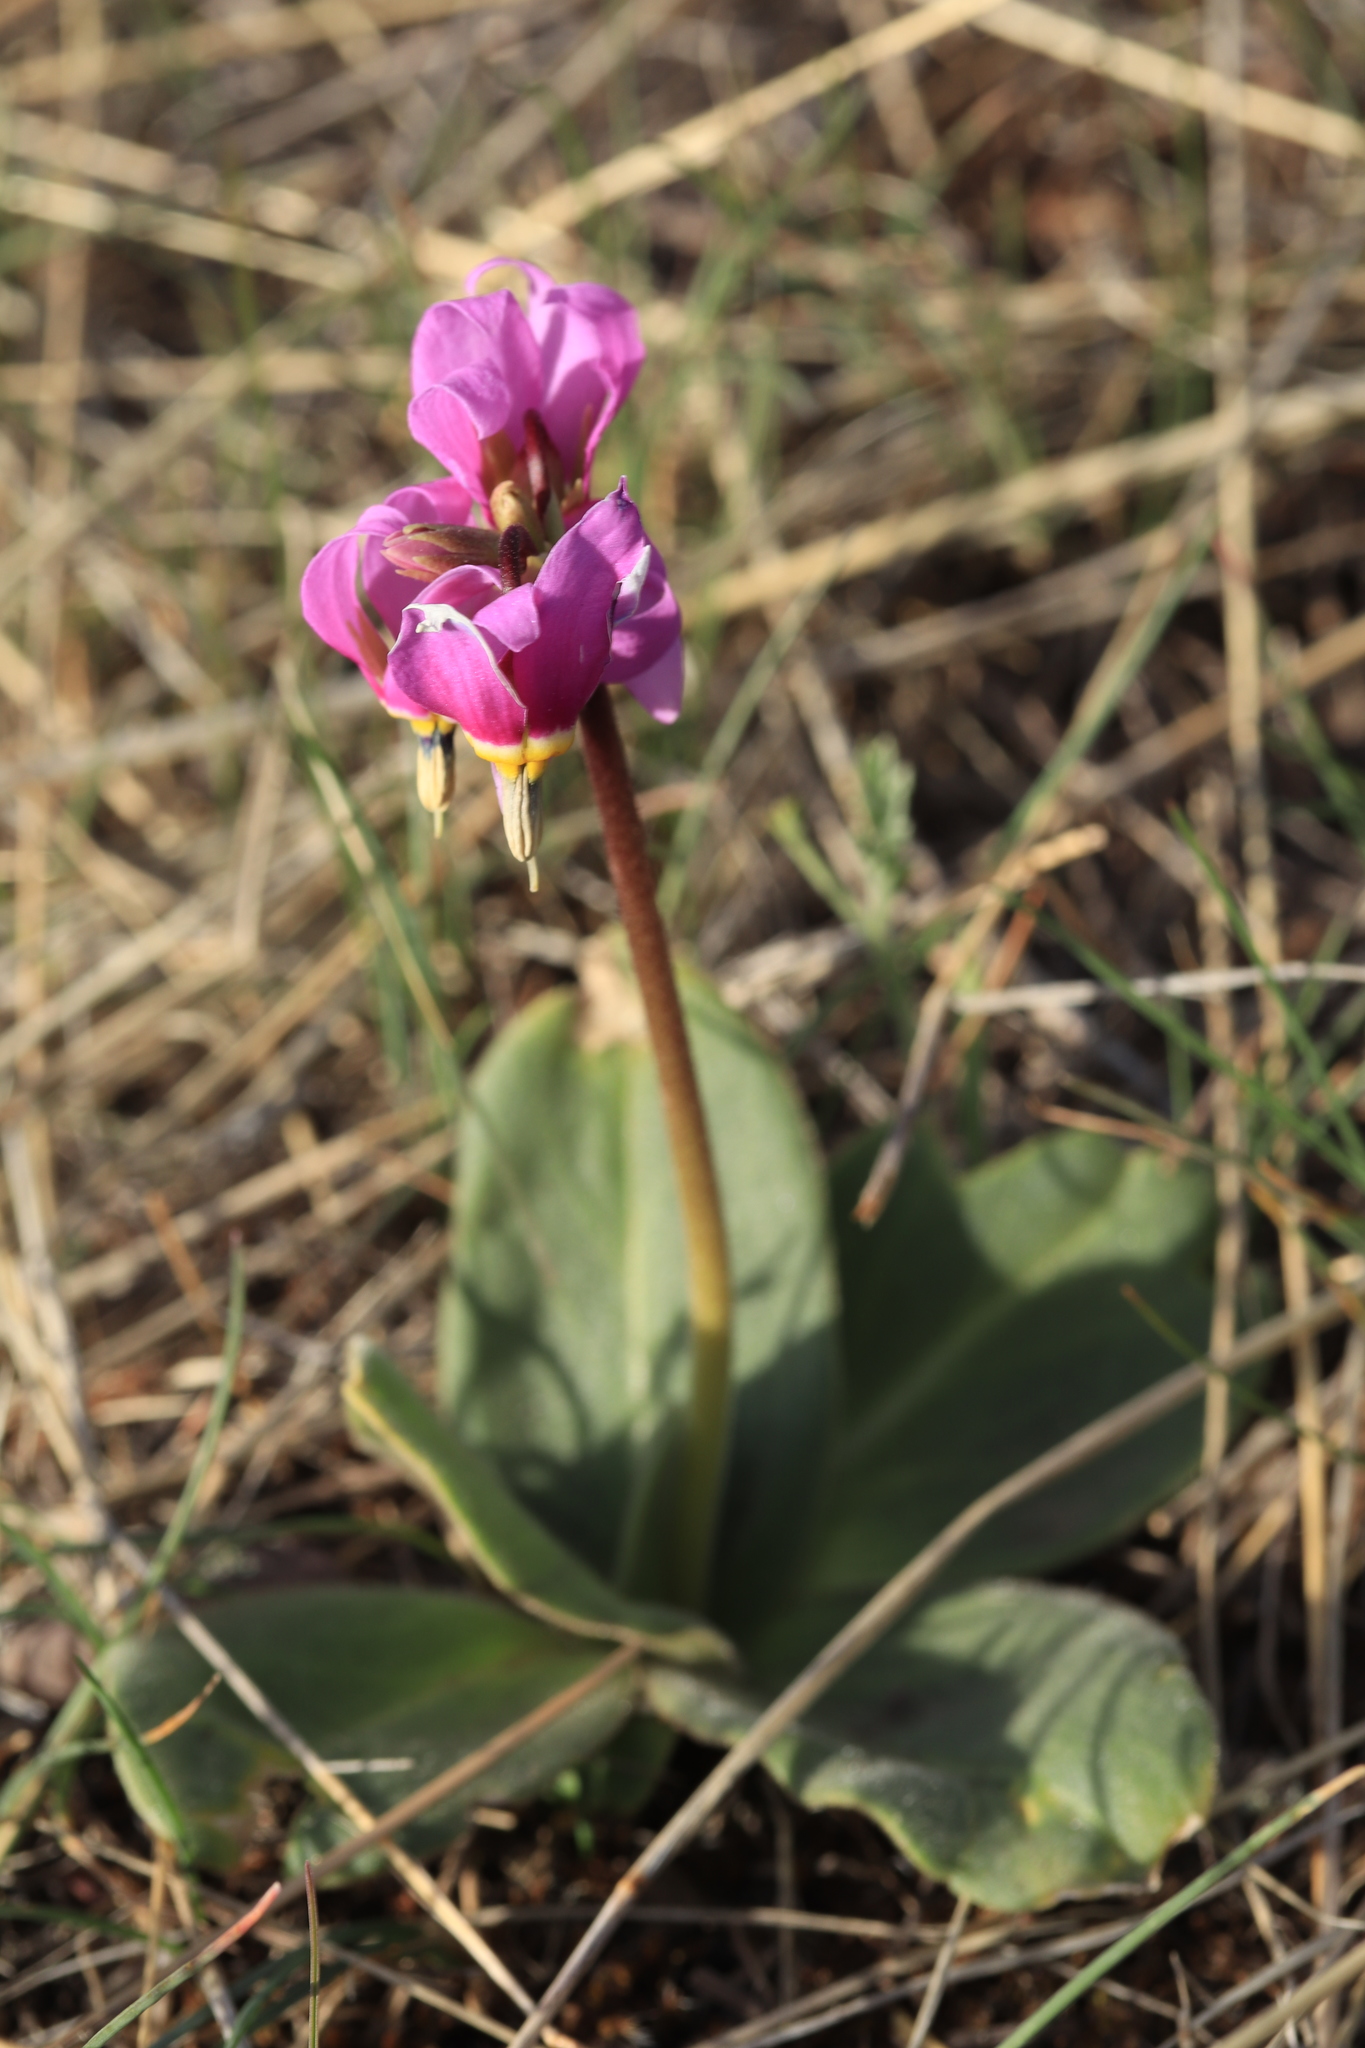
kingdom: Plantae
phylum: Tracheophyta
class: Magnoliopsida
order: Ericales
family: Primulaceae
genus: Dodecatheon
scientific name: Dodecatheon conjugens
